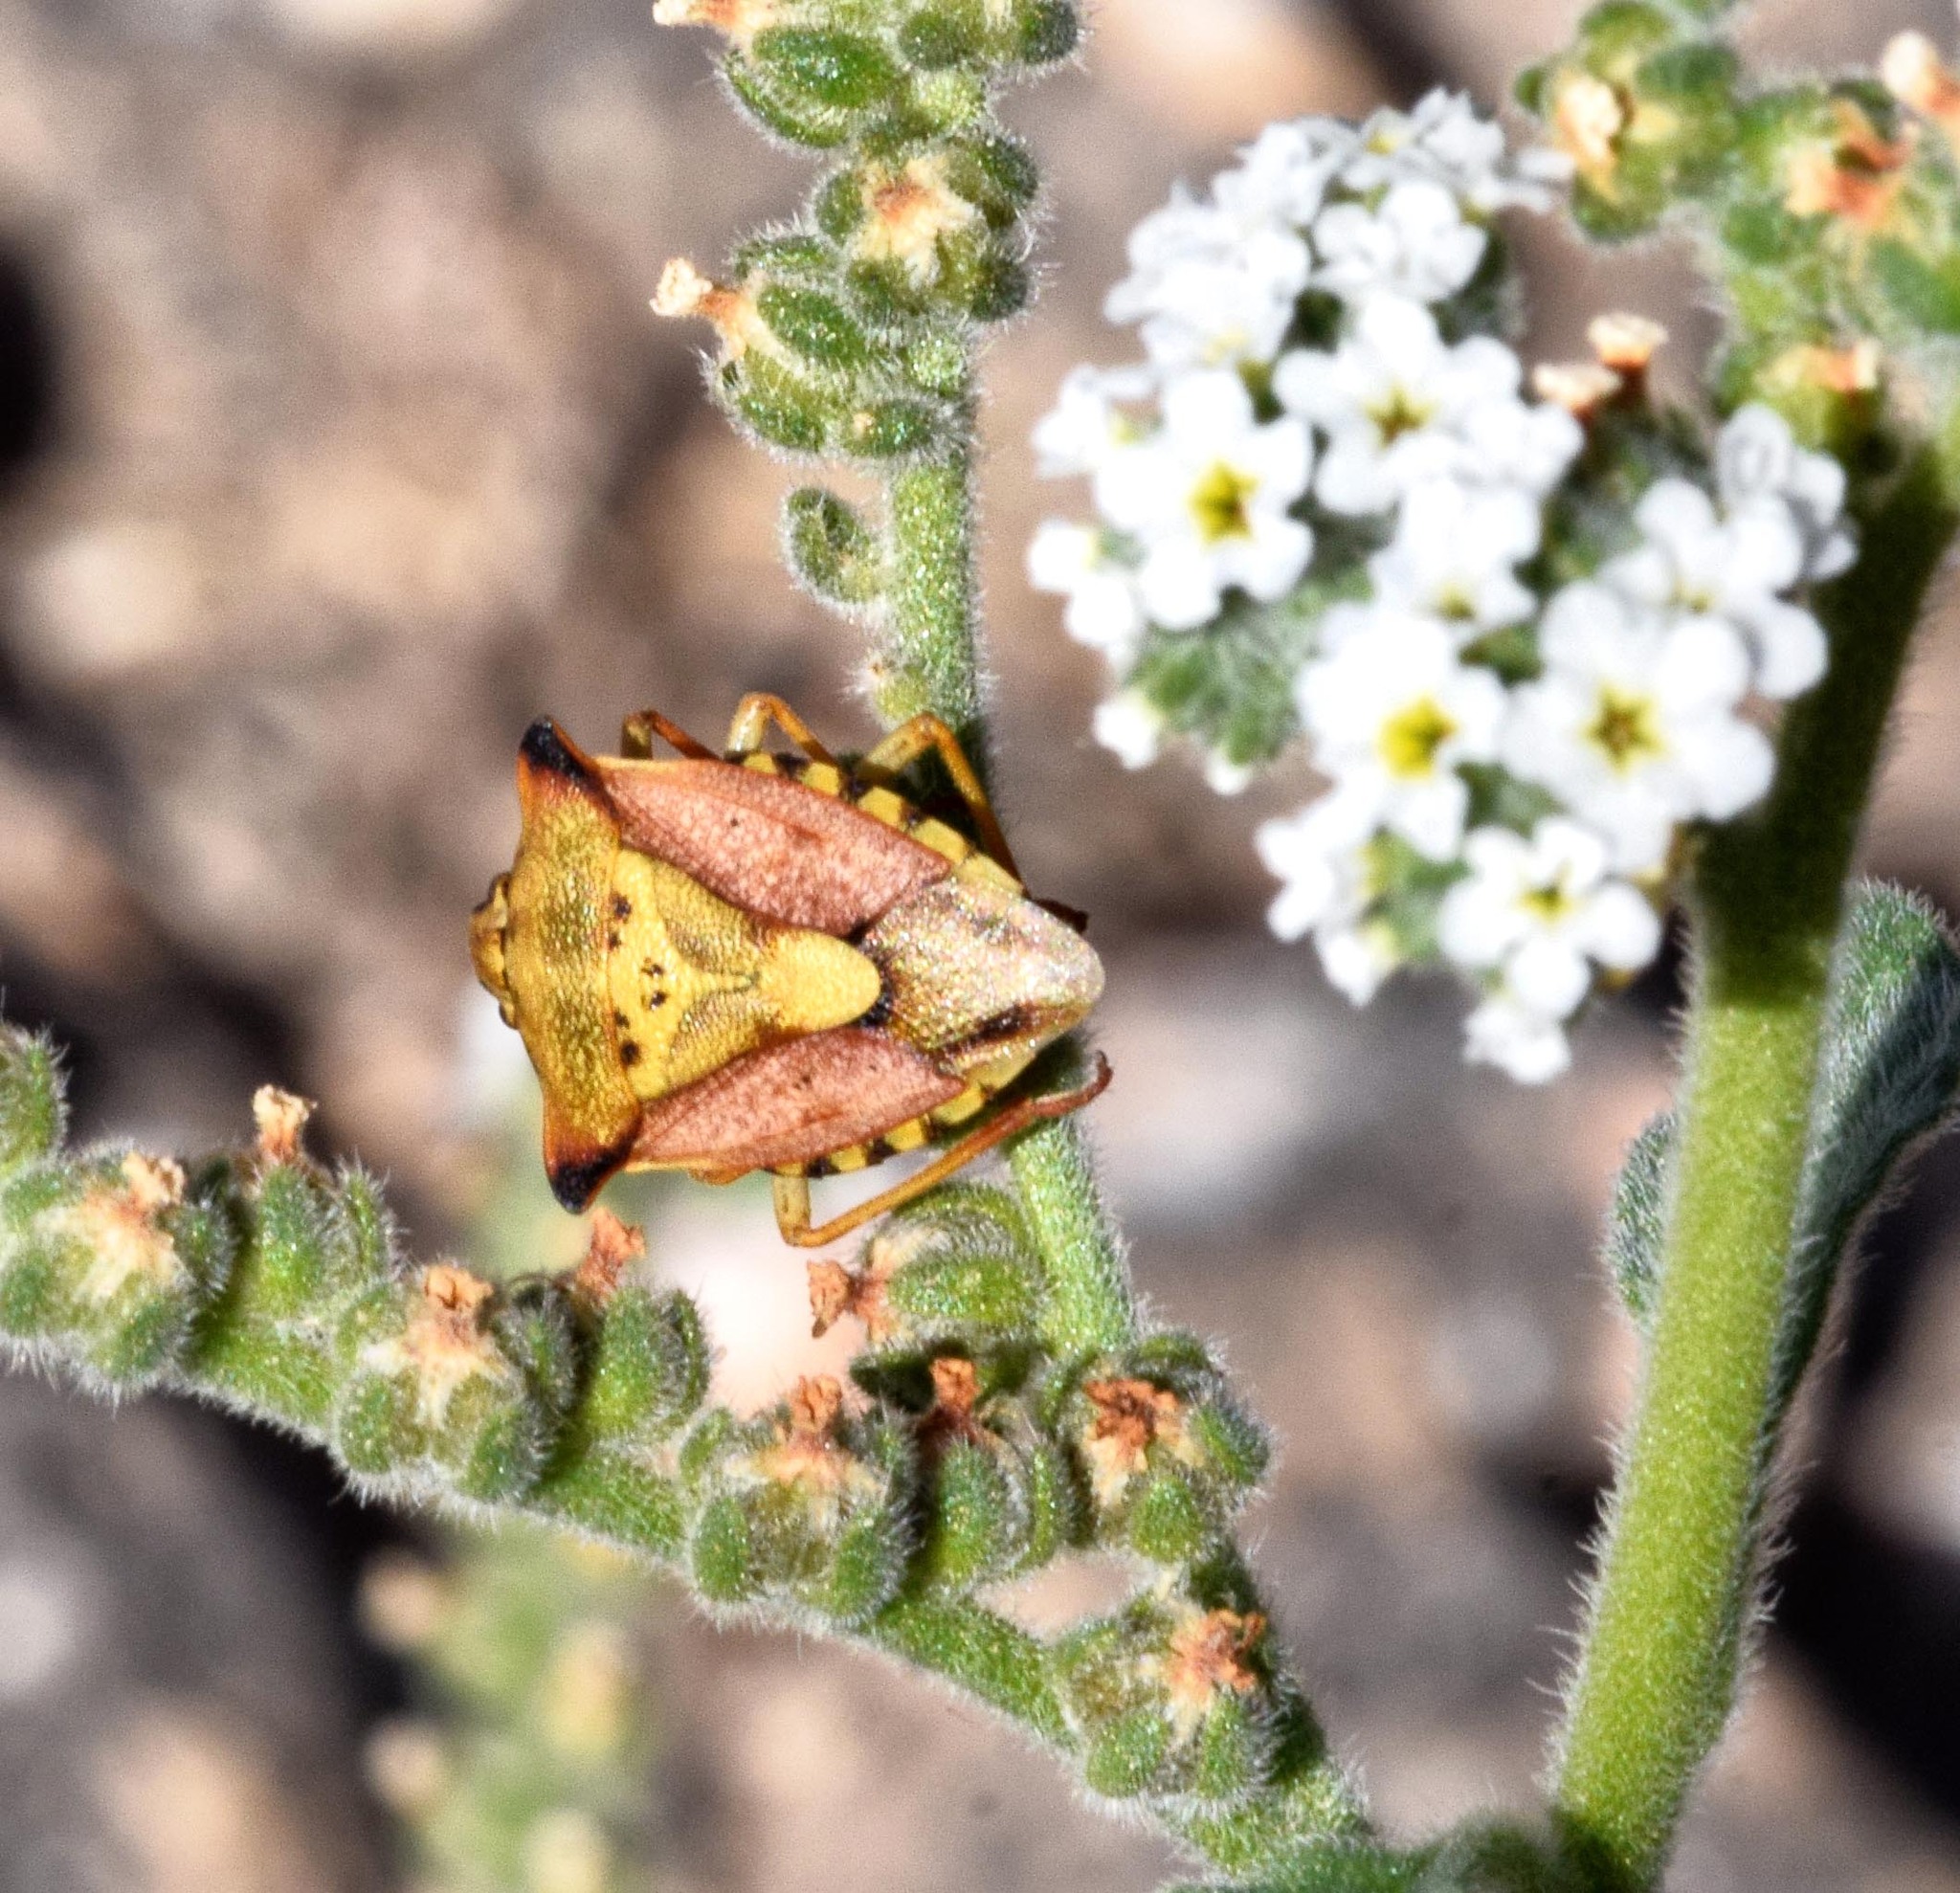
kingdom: Animalia
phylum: Arthropoda
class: Insecta
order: Hemiptera
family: Pentatomidae
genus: Carpocoris
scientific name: Carpocoris mediterraneus
